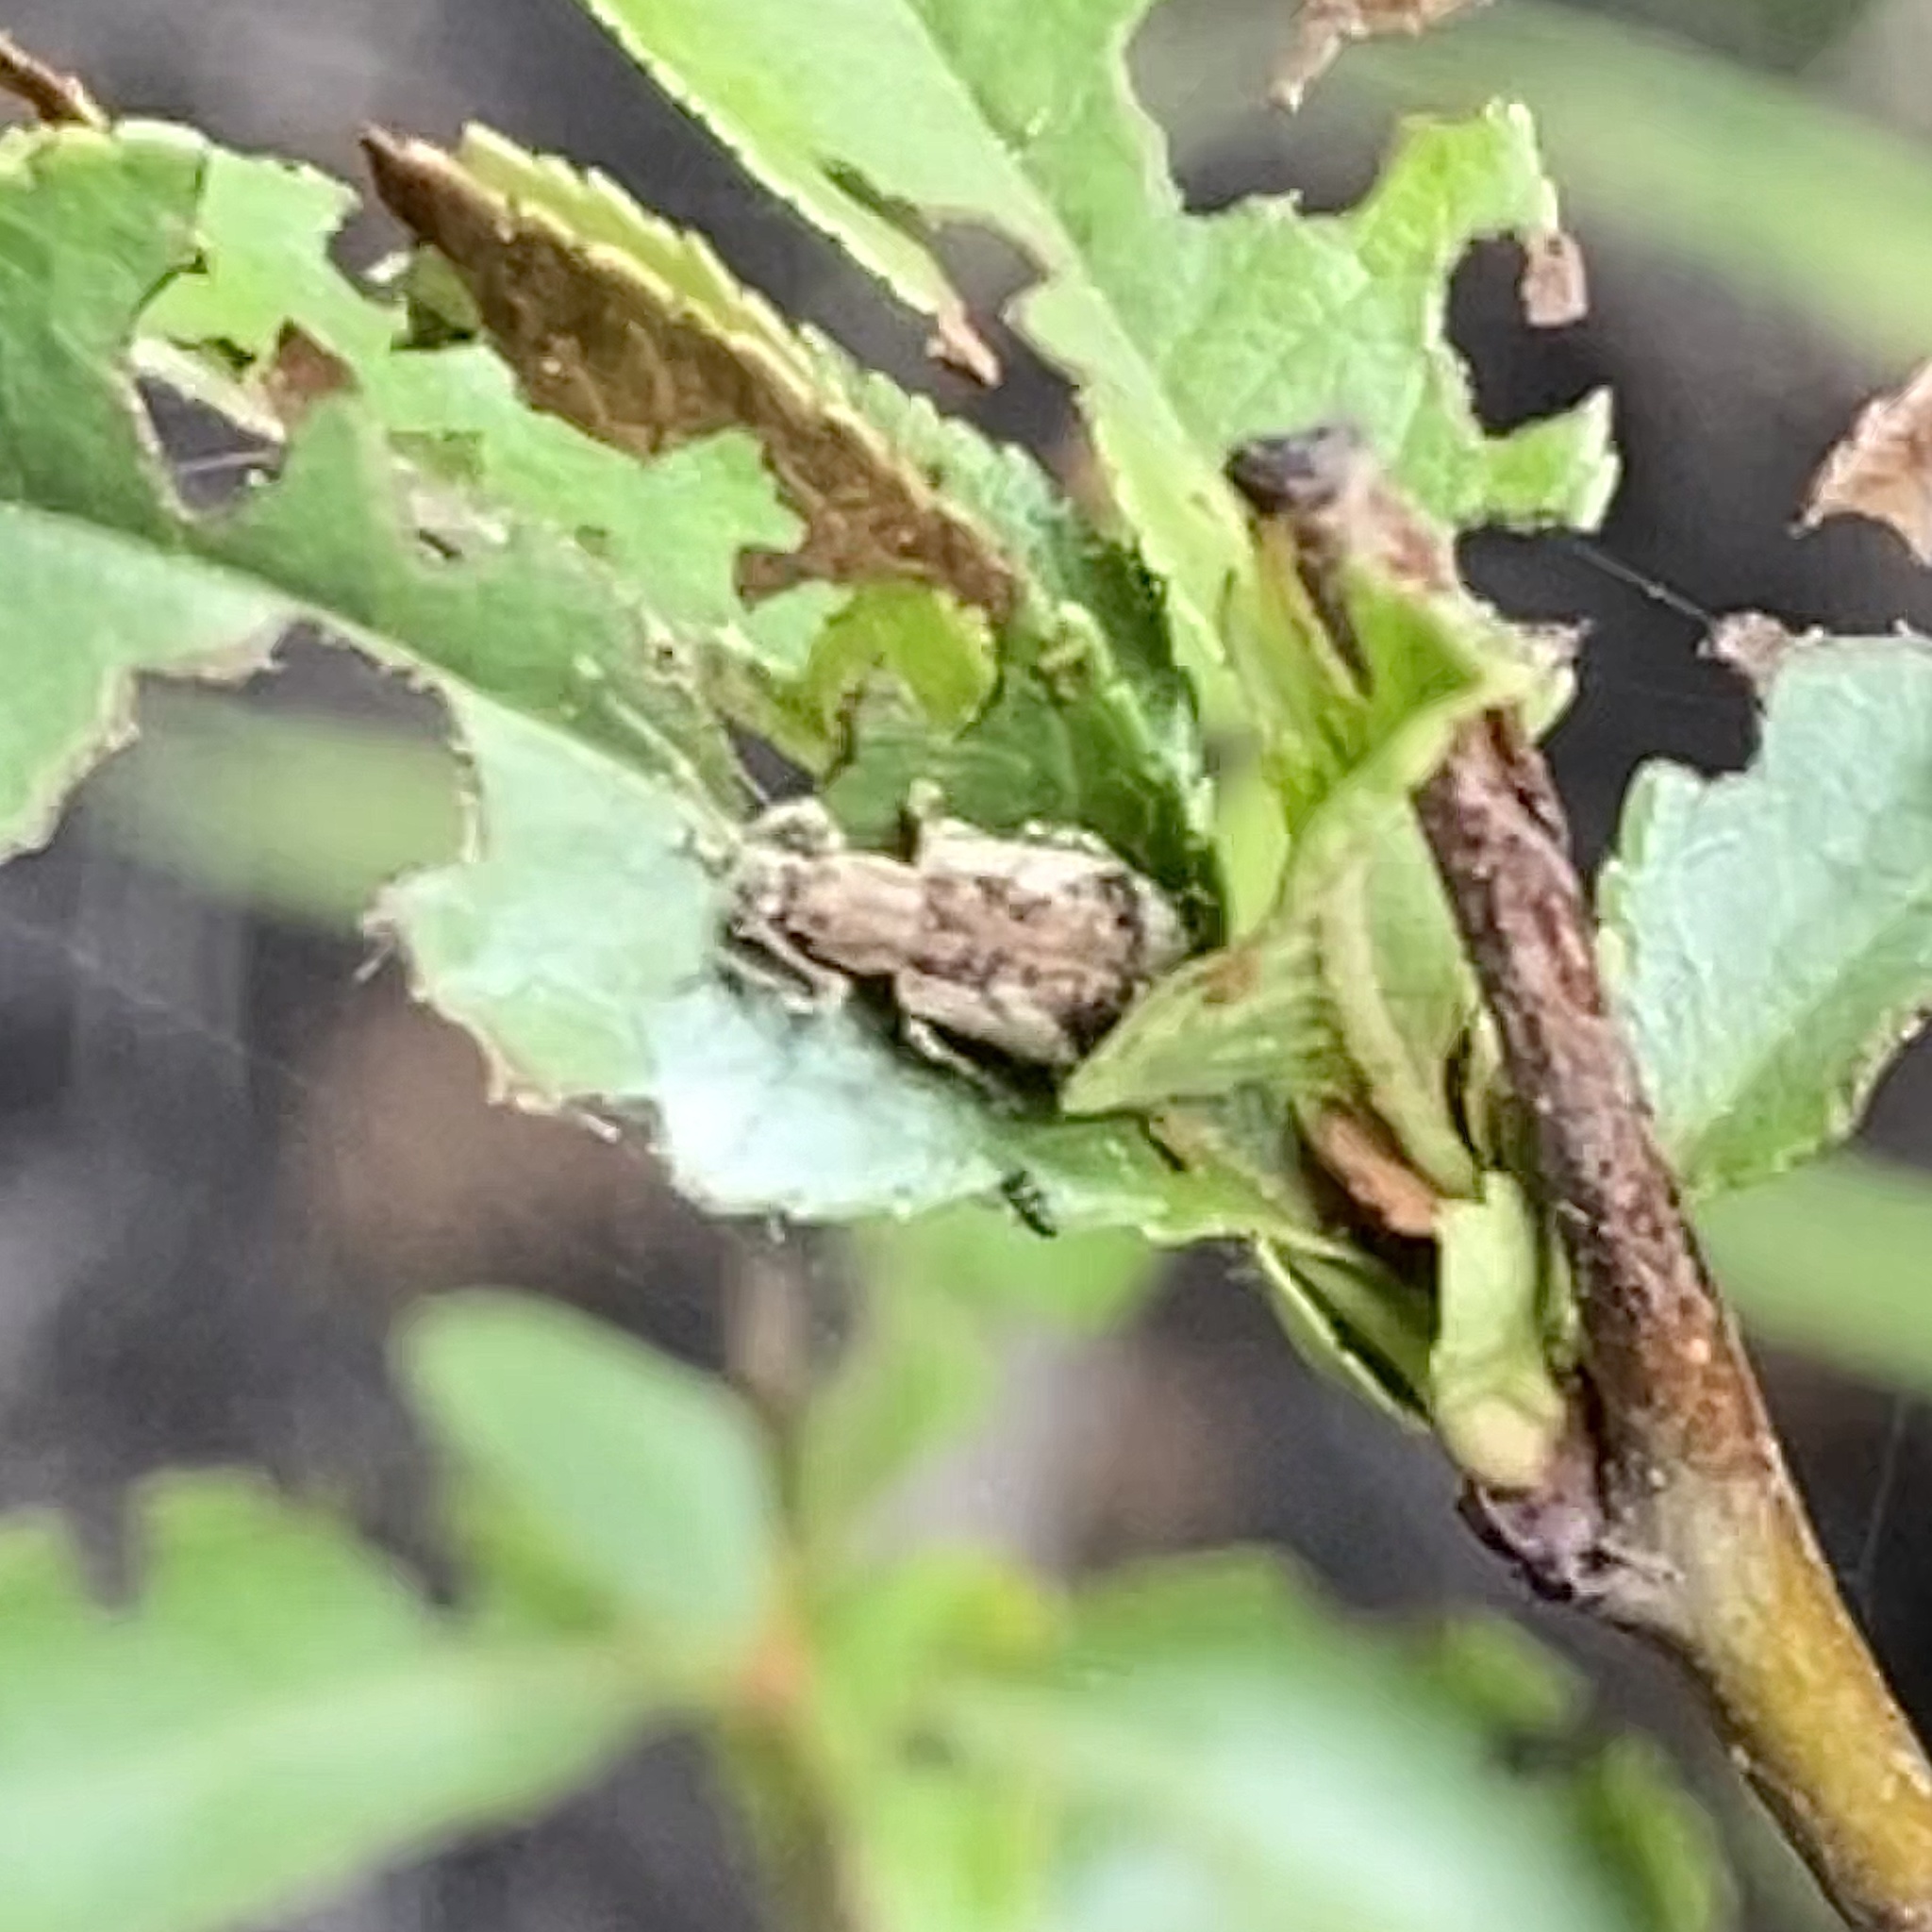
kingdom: Animalia
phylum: Arthropoda
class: Insecta
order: Coleoptera
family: Curculionidae
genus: Pseudoedophrys
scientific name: Pseudoedophrys hilleri
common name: Weevil
